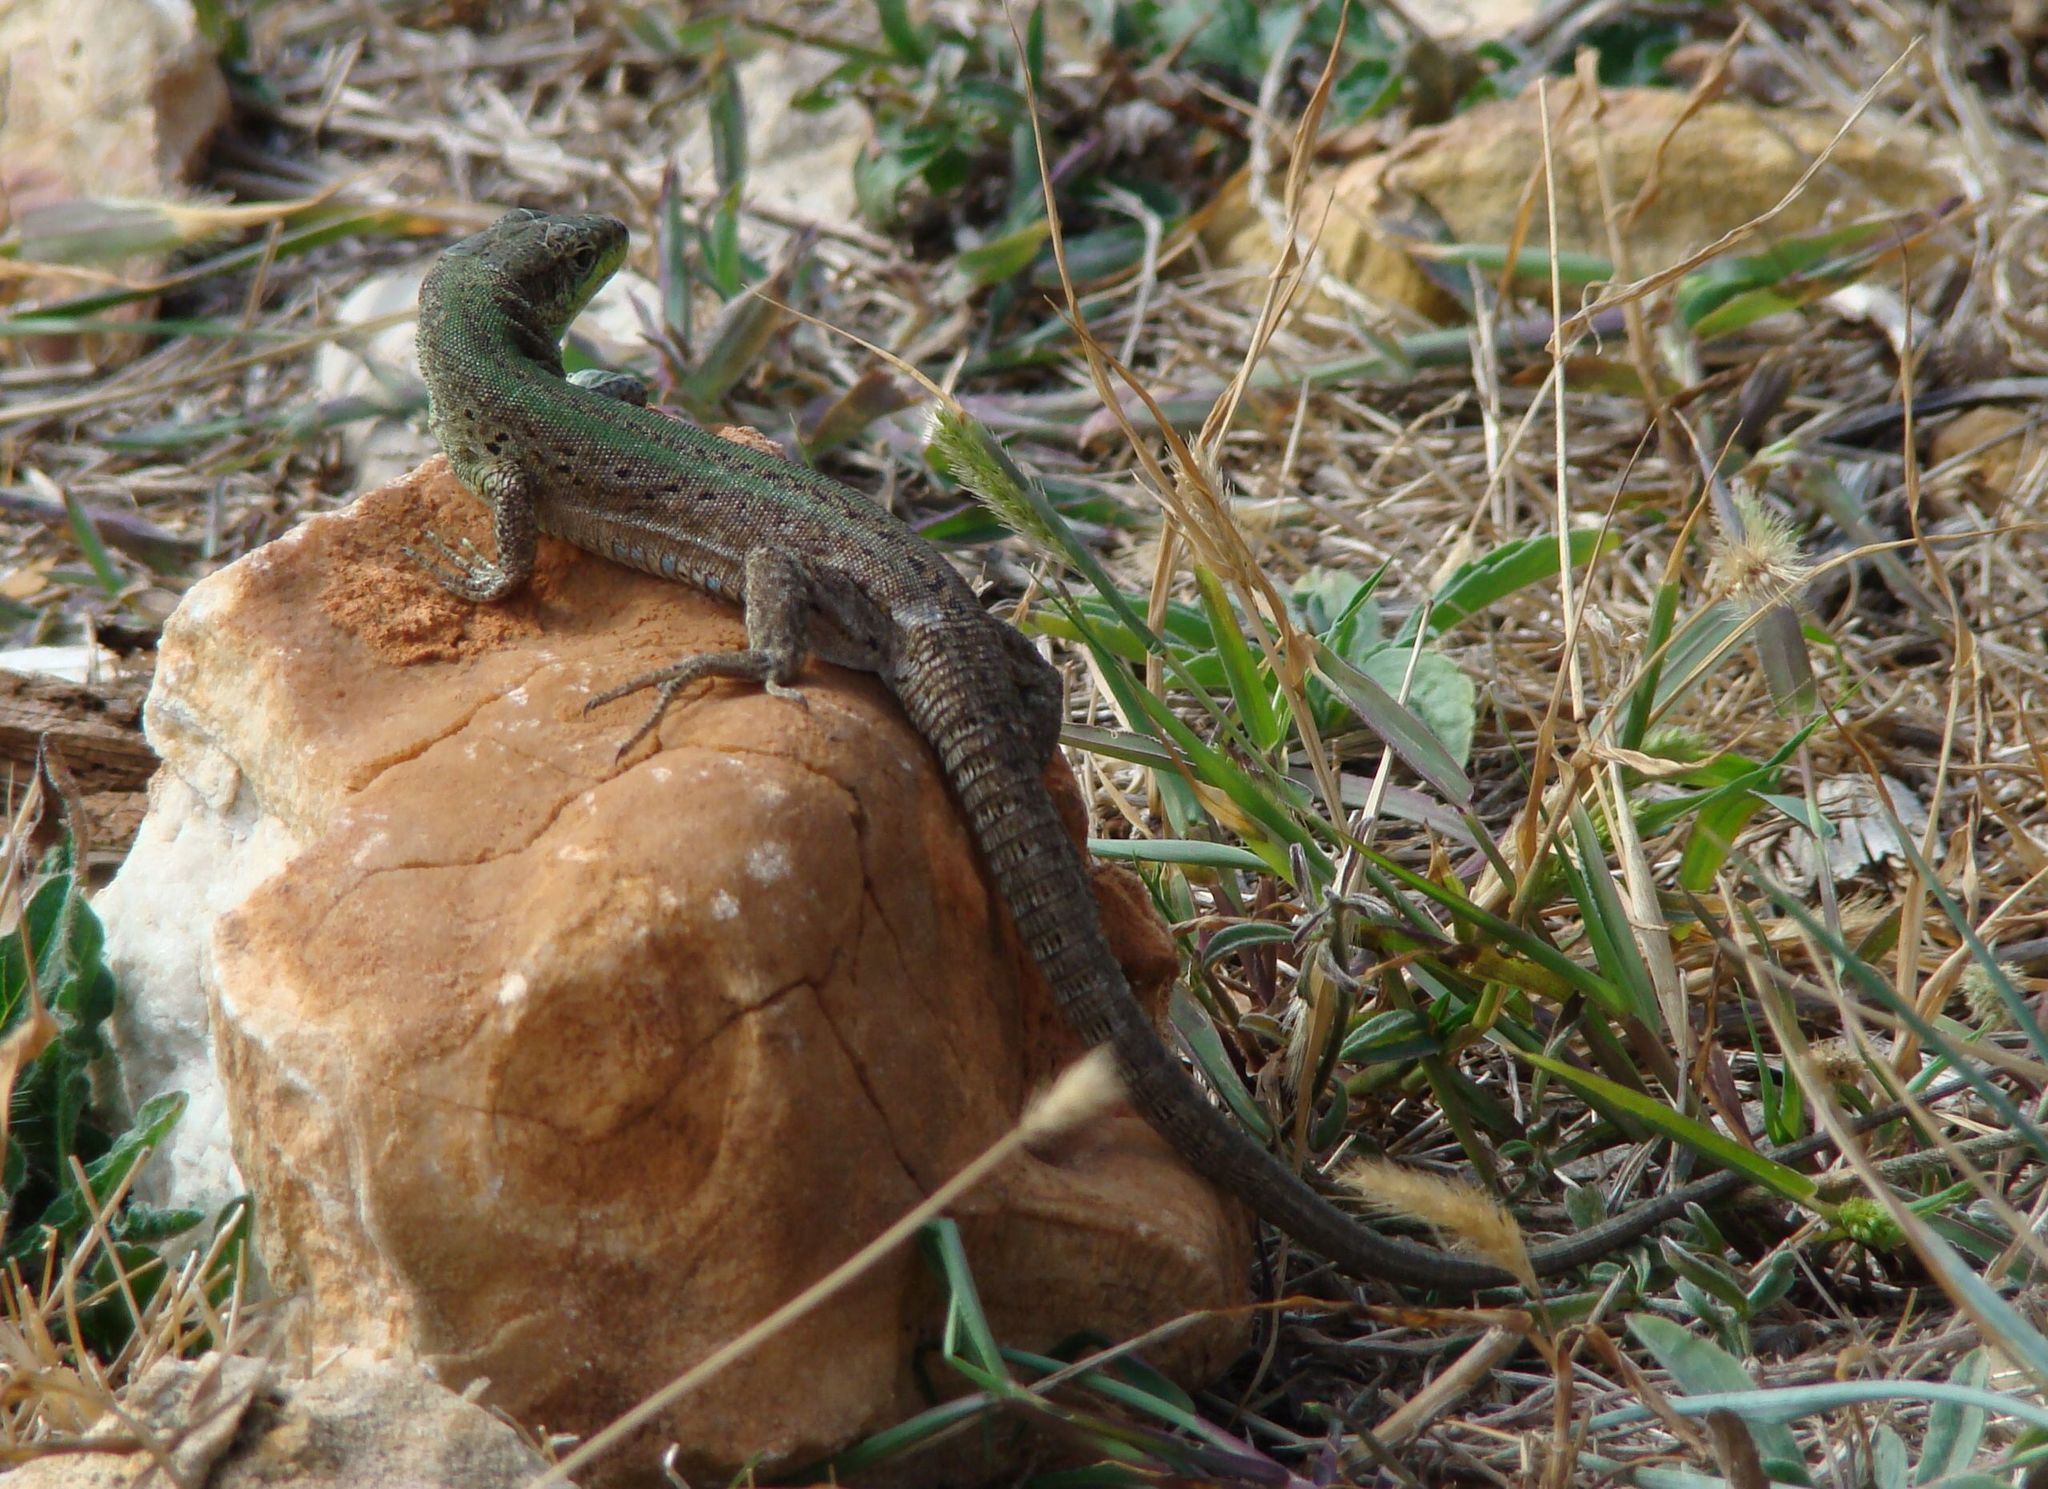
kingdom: Animalia
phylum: Chordata
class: Squamata
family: Lacertidae
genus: Podarcis
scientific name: Podarcis melisellensis
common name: Dalmatian wall lizard
